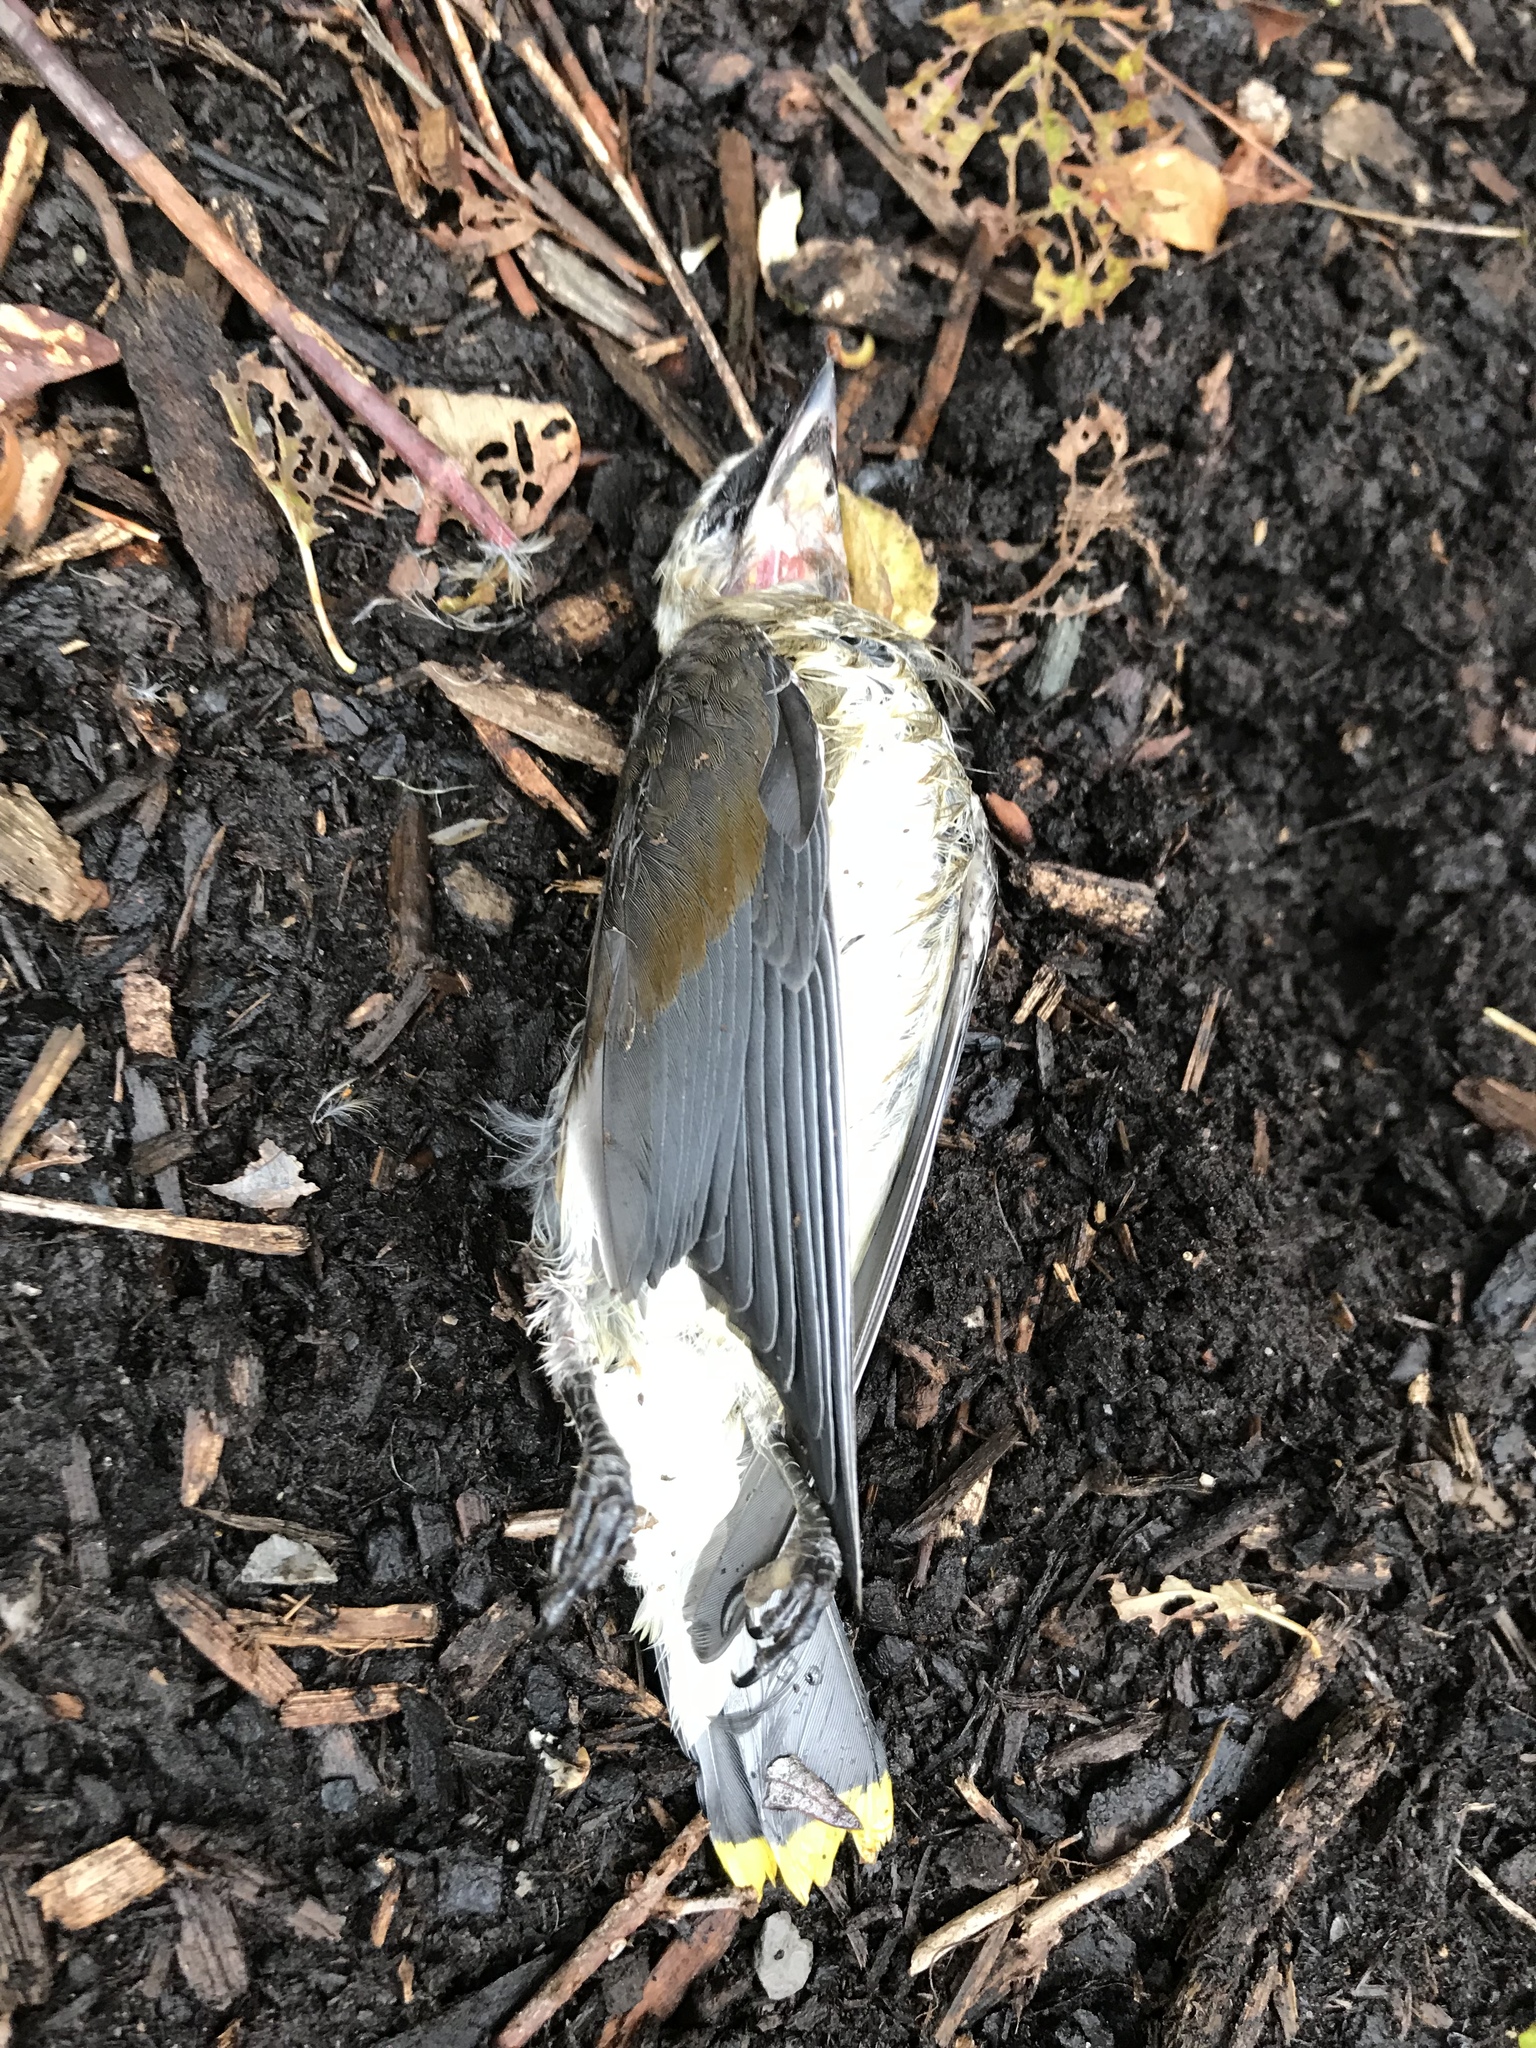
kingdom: Animalia
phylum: Chordata
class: Aves
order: Passeriformes
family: Bombycillidae
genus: Bombycilla
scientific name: Bombycilla cedrorum
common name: Cedar waxwing
